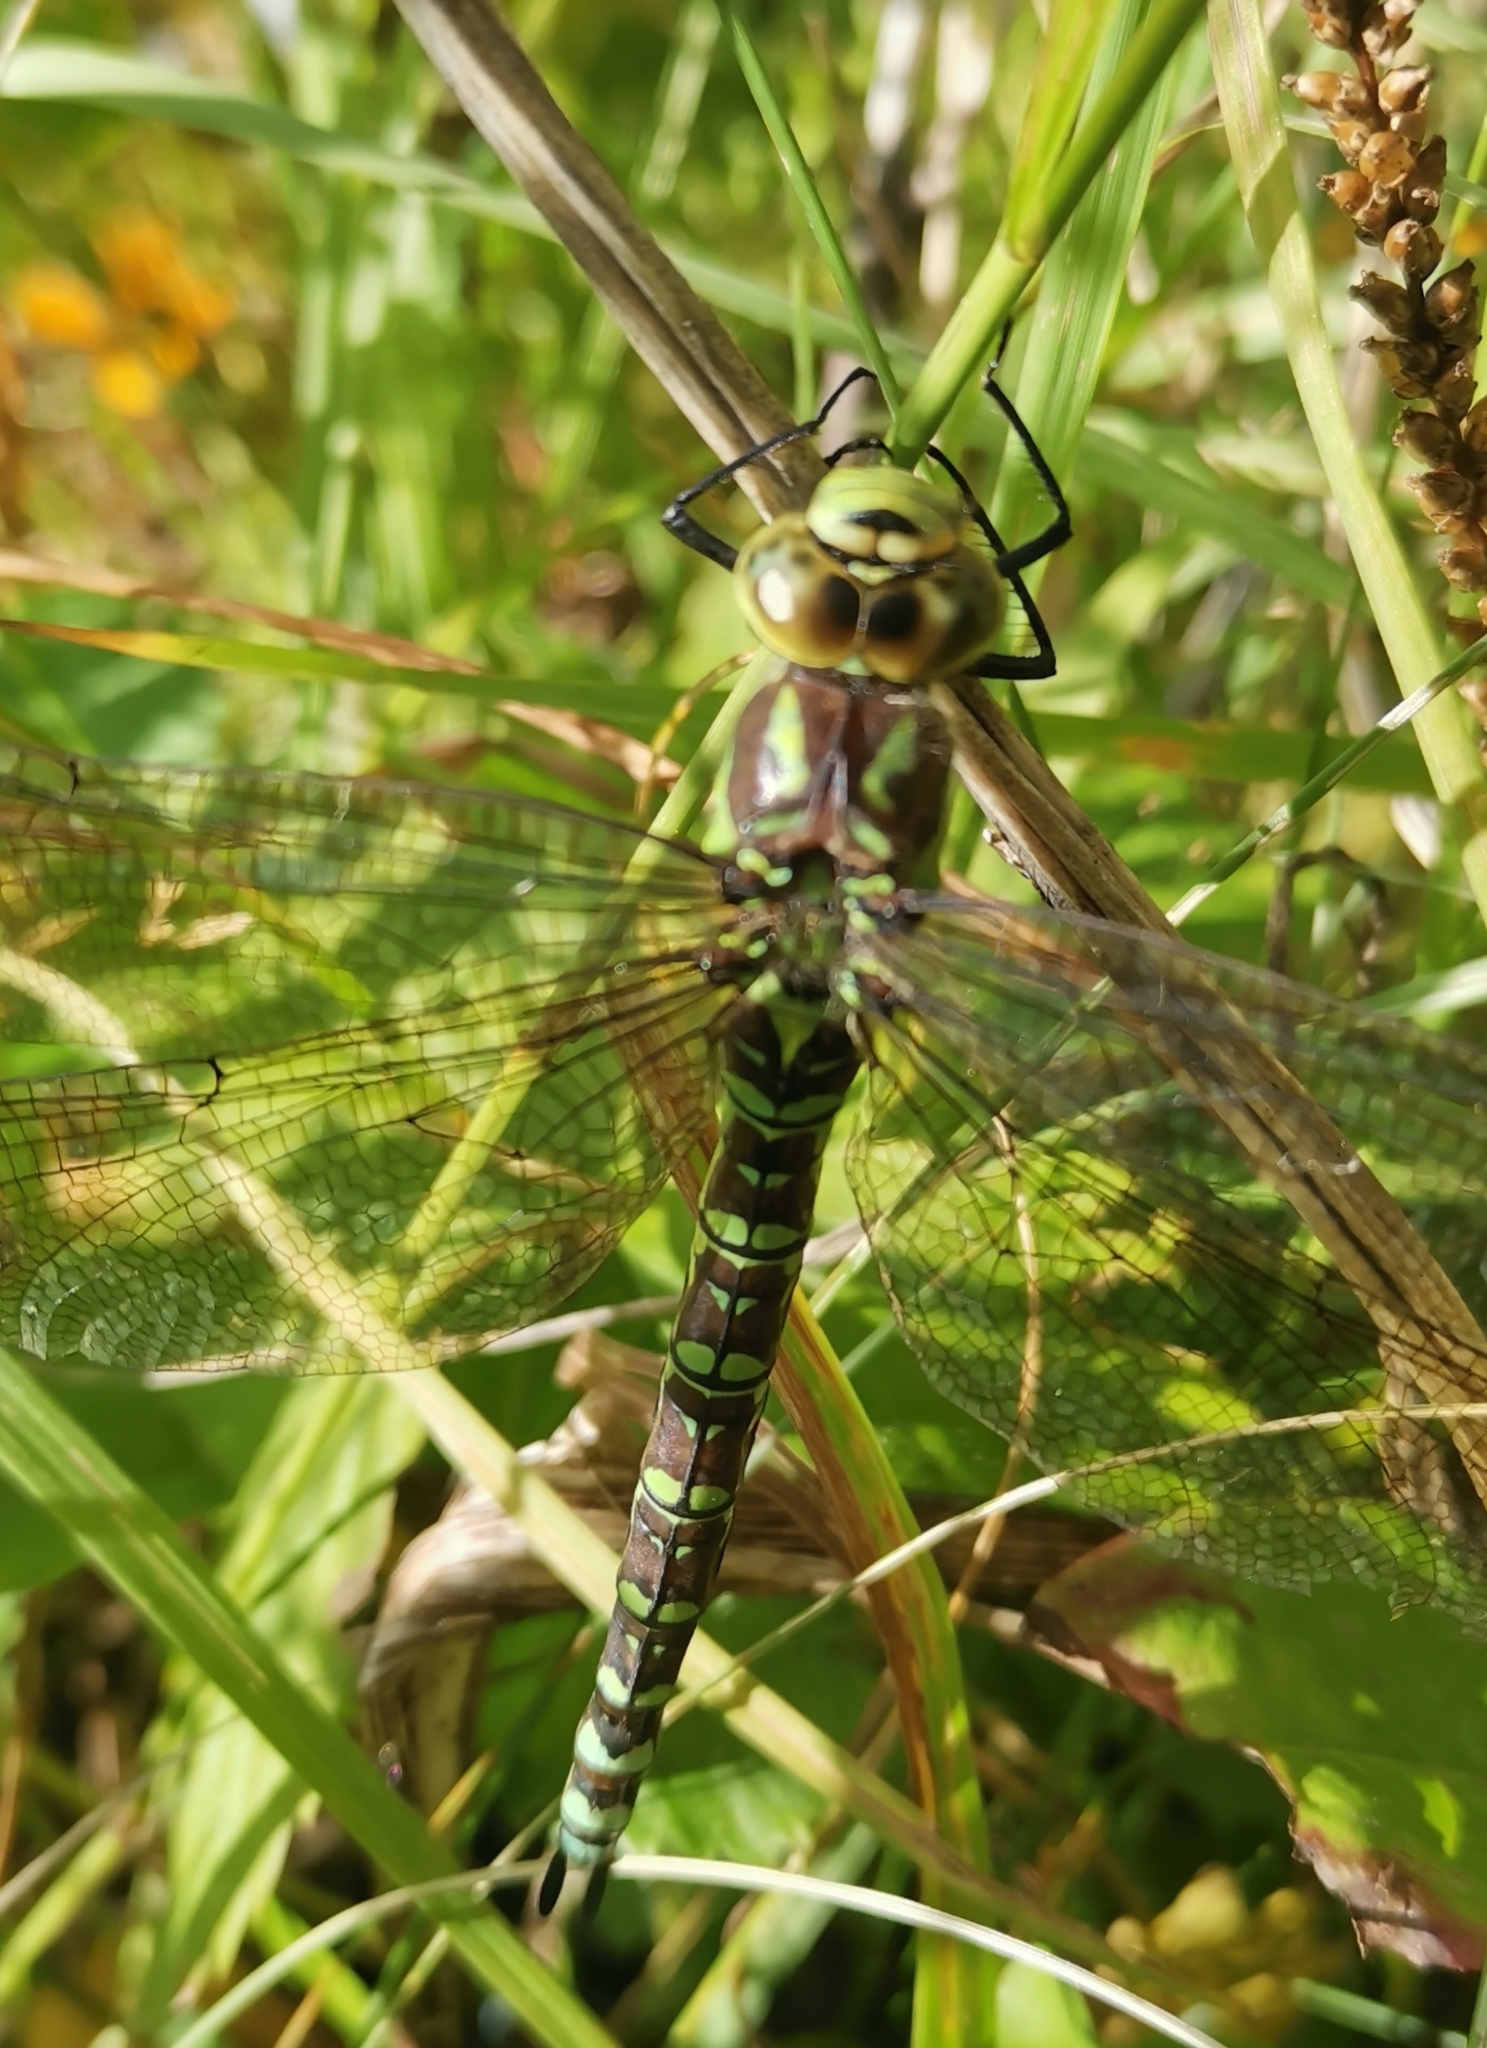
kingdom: Animalia
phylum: Arthropoda
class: Insecta
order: Odonata
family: Aeshnidae
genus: Aeshna
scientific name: Aeshna cyanea
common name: Southern hawker
